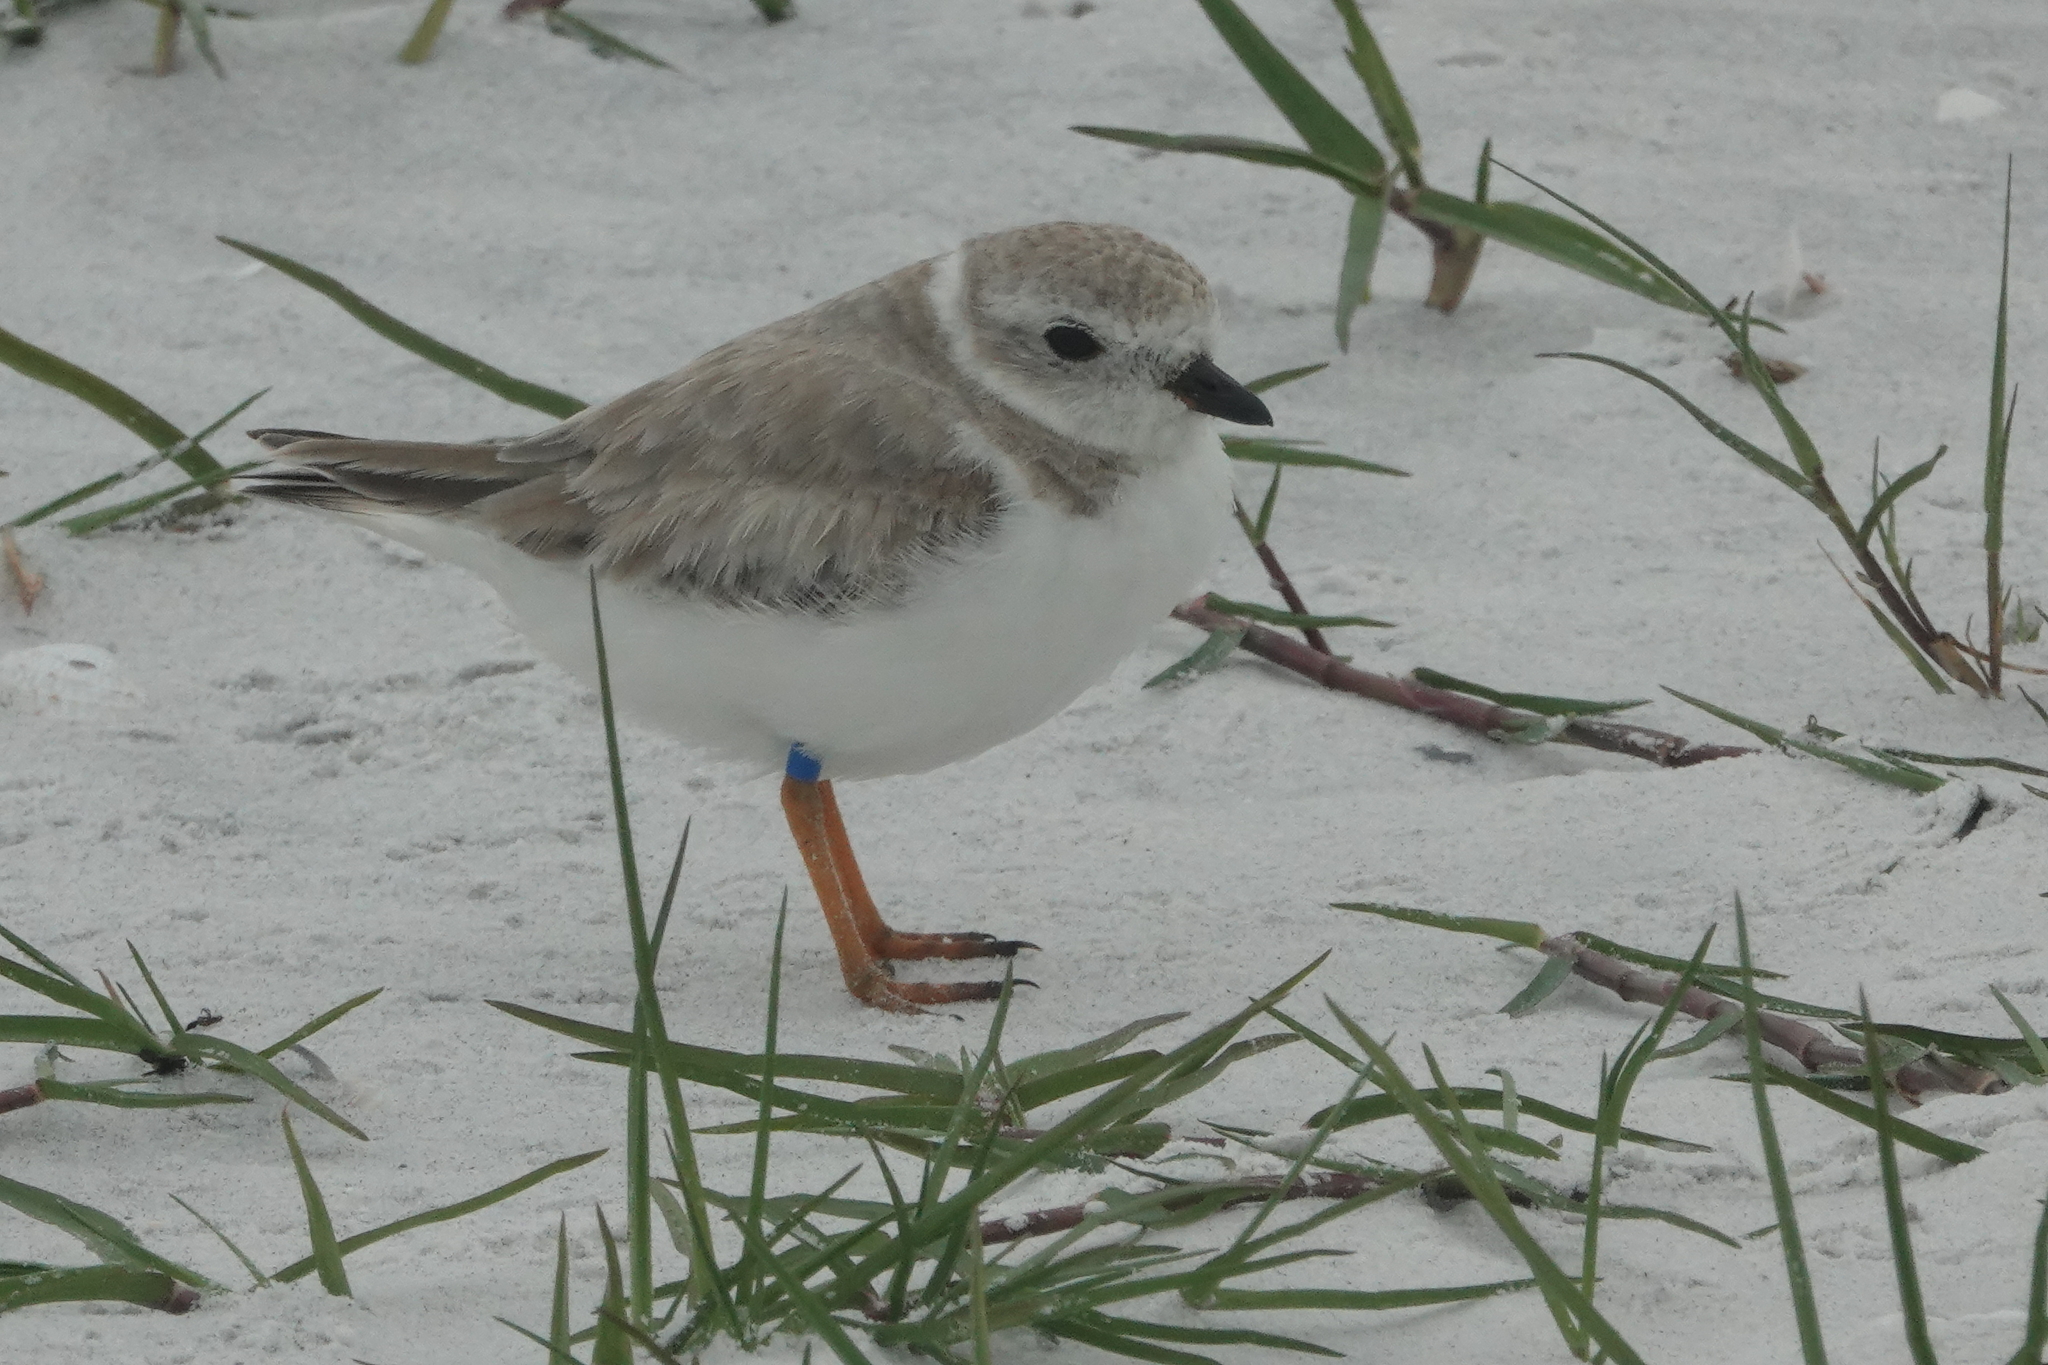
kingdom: Animalia
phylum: Arthropoda
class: Insecta
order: Lepidoptera
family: Hesperiidae
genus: Hylephila
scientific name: Hylephila phyleus
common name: Fiery skipper
